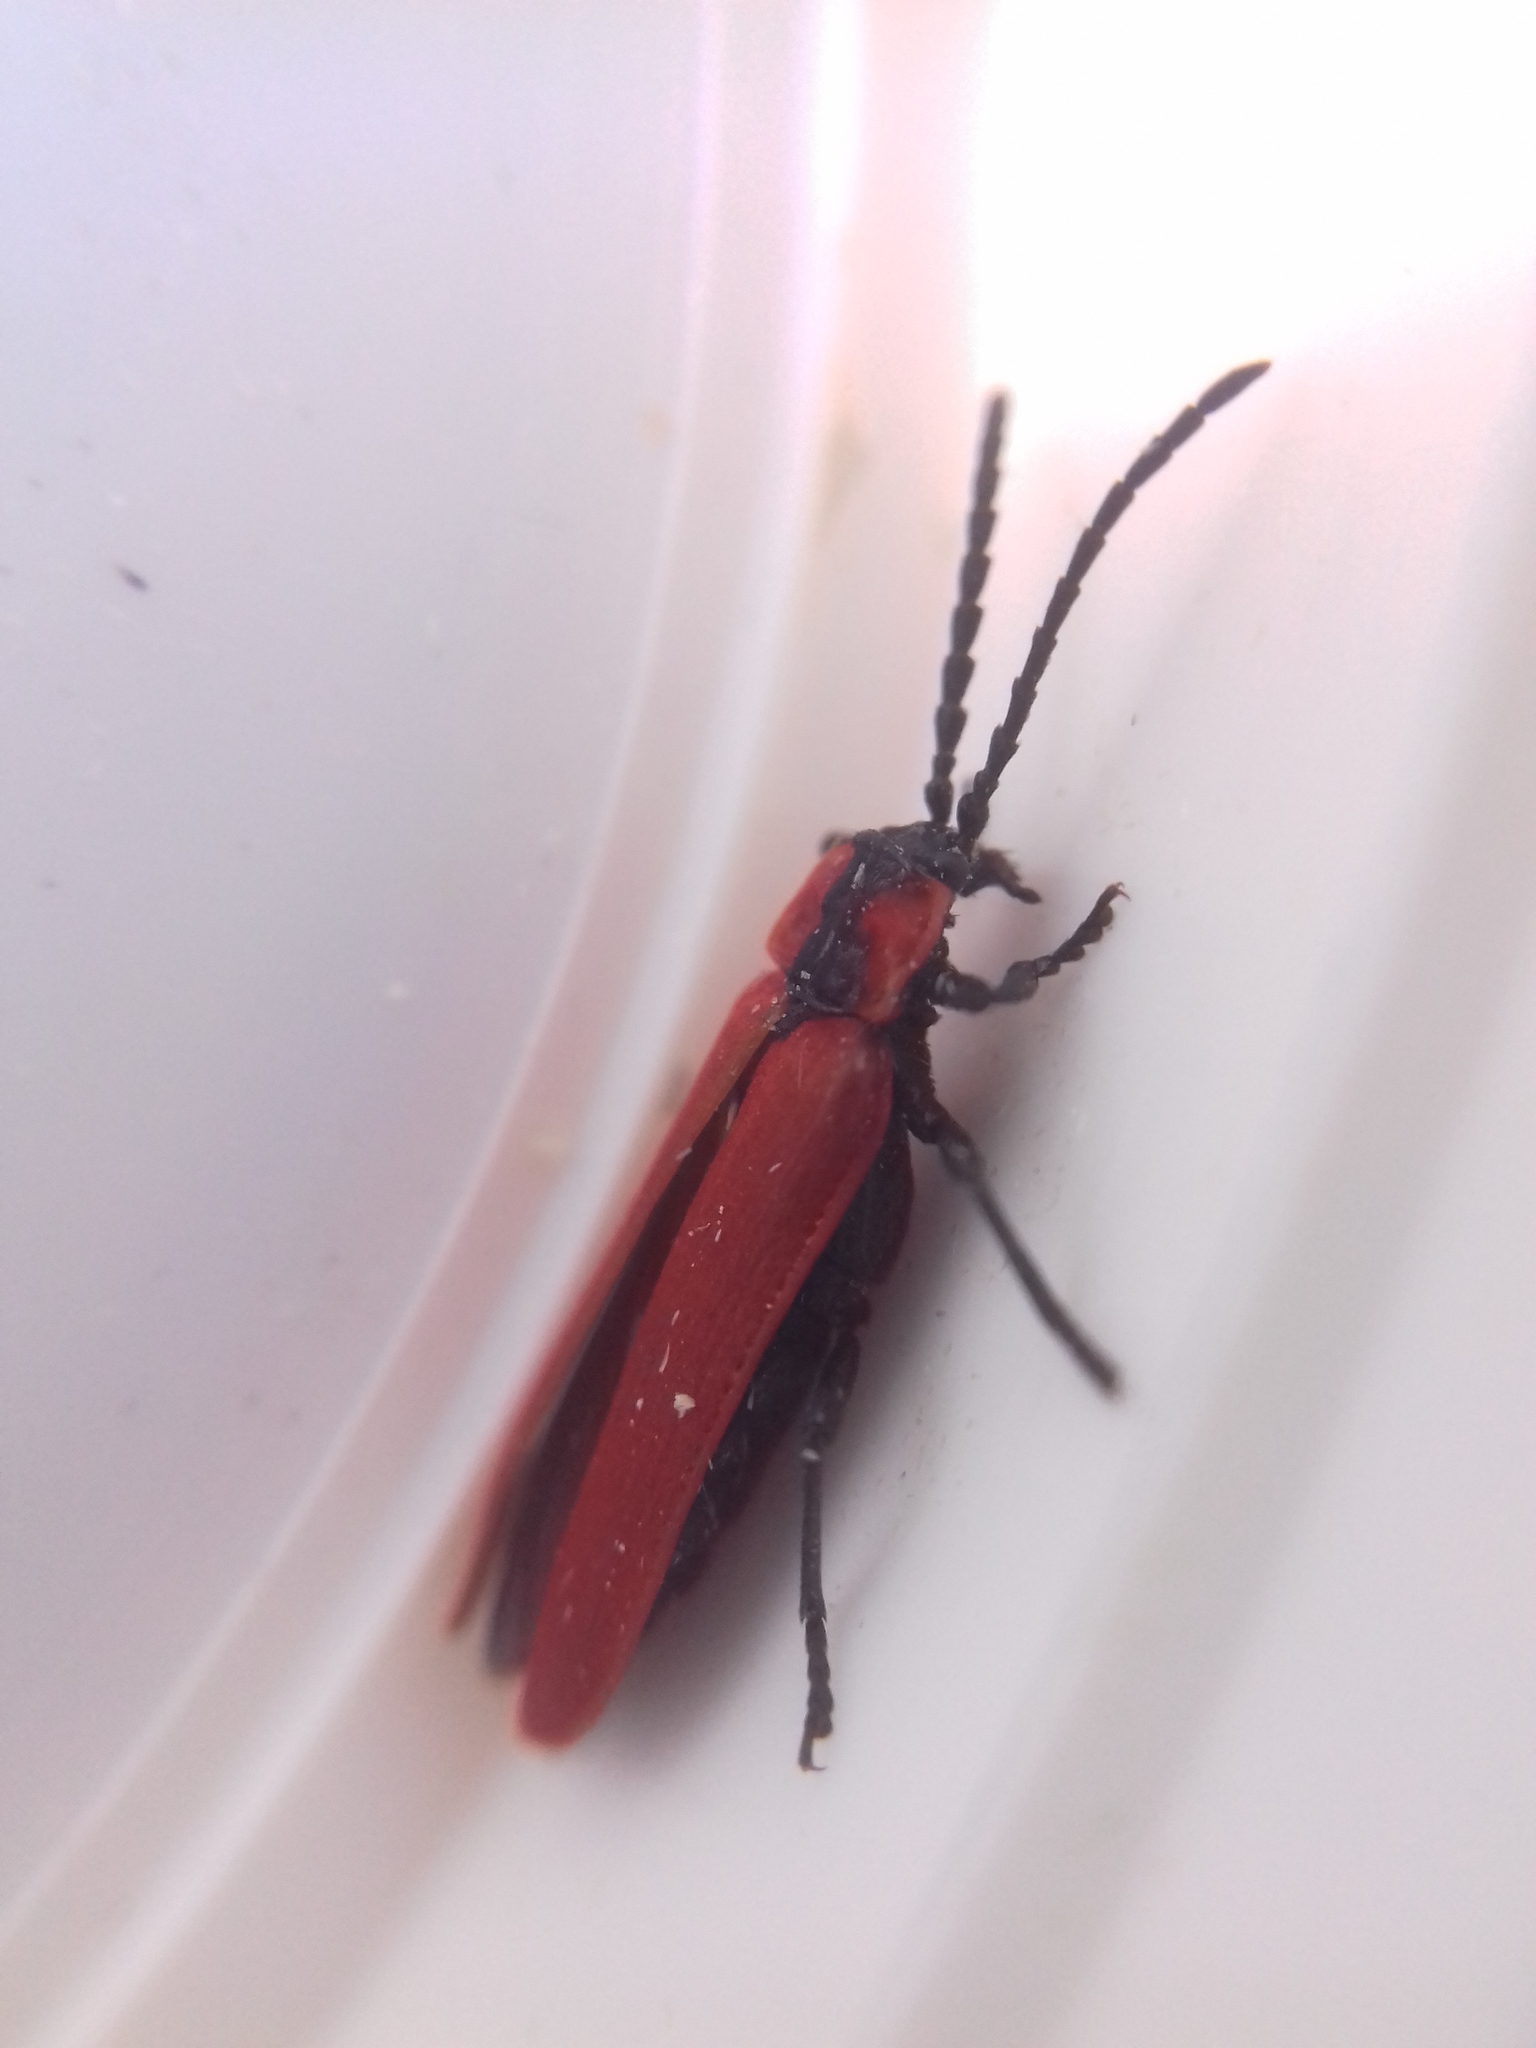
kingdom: Animalia
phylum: Arthropoda
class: Insecta
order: Coleoptera
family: Lycidae
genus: Lygistopterus
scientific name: Lygistopterus sanguineus
